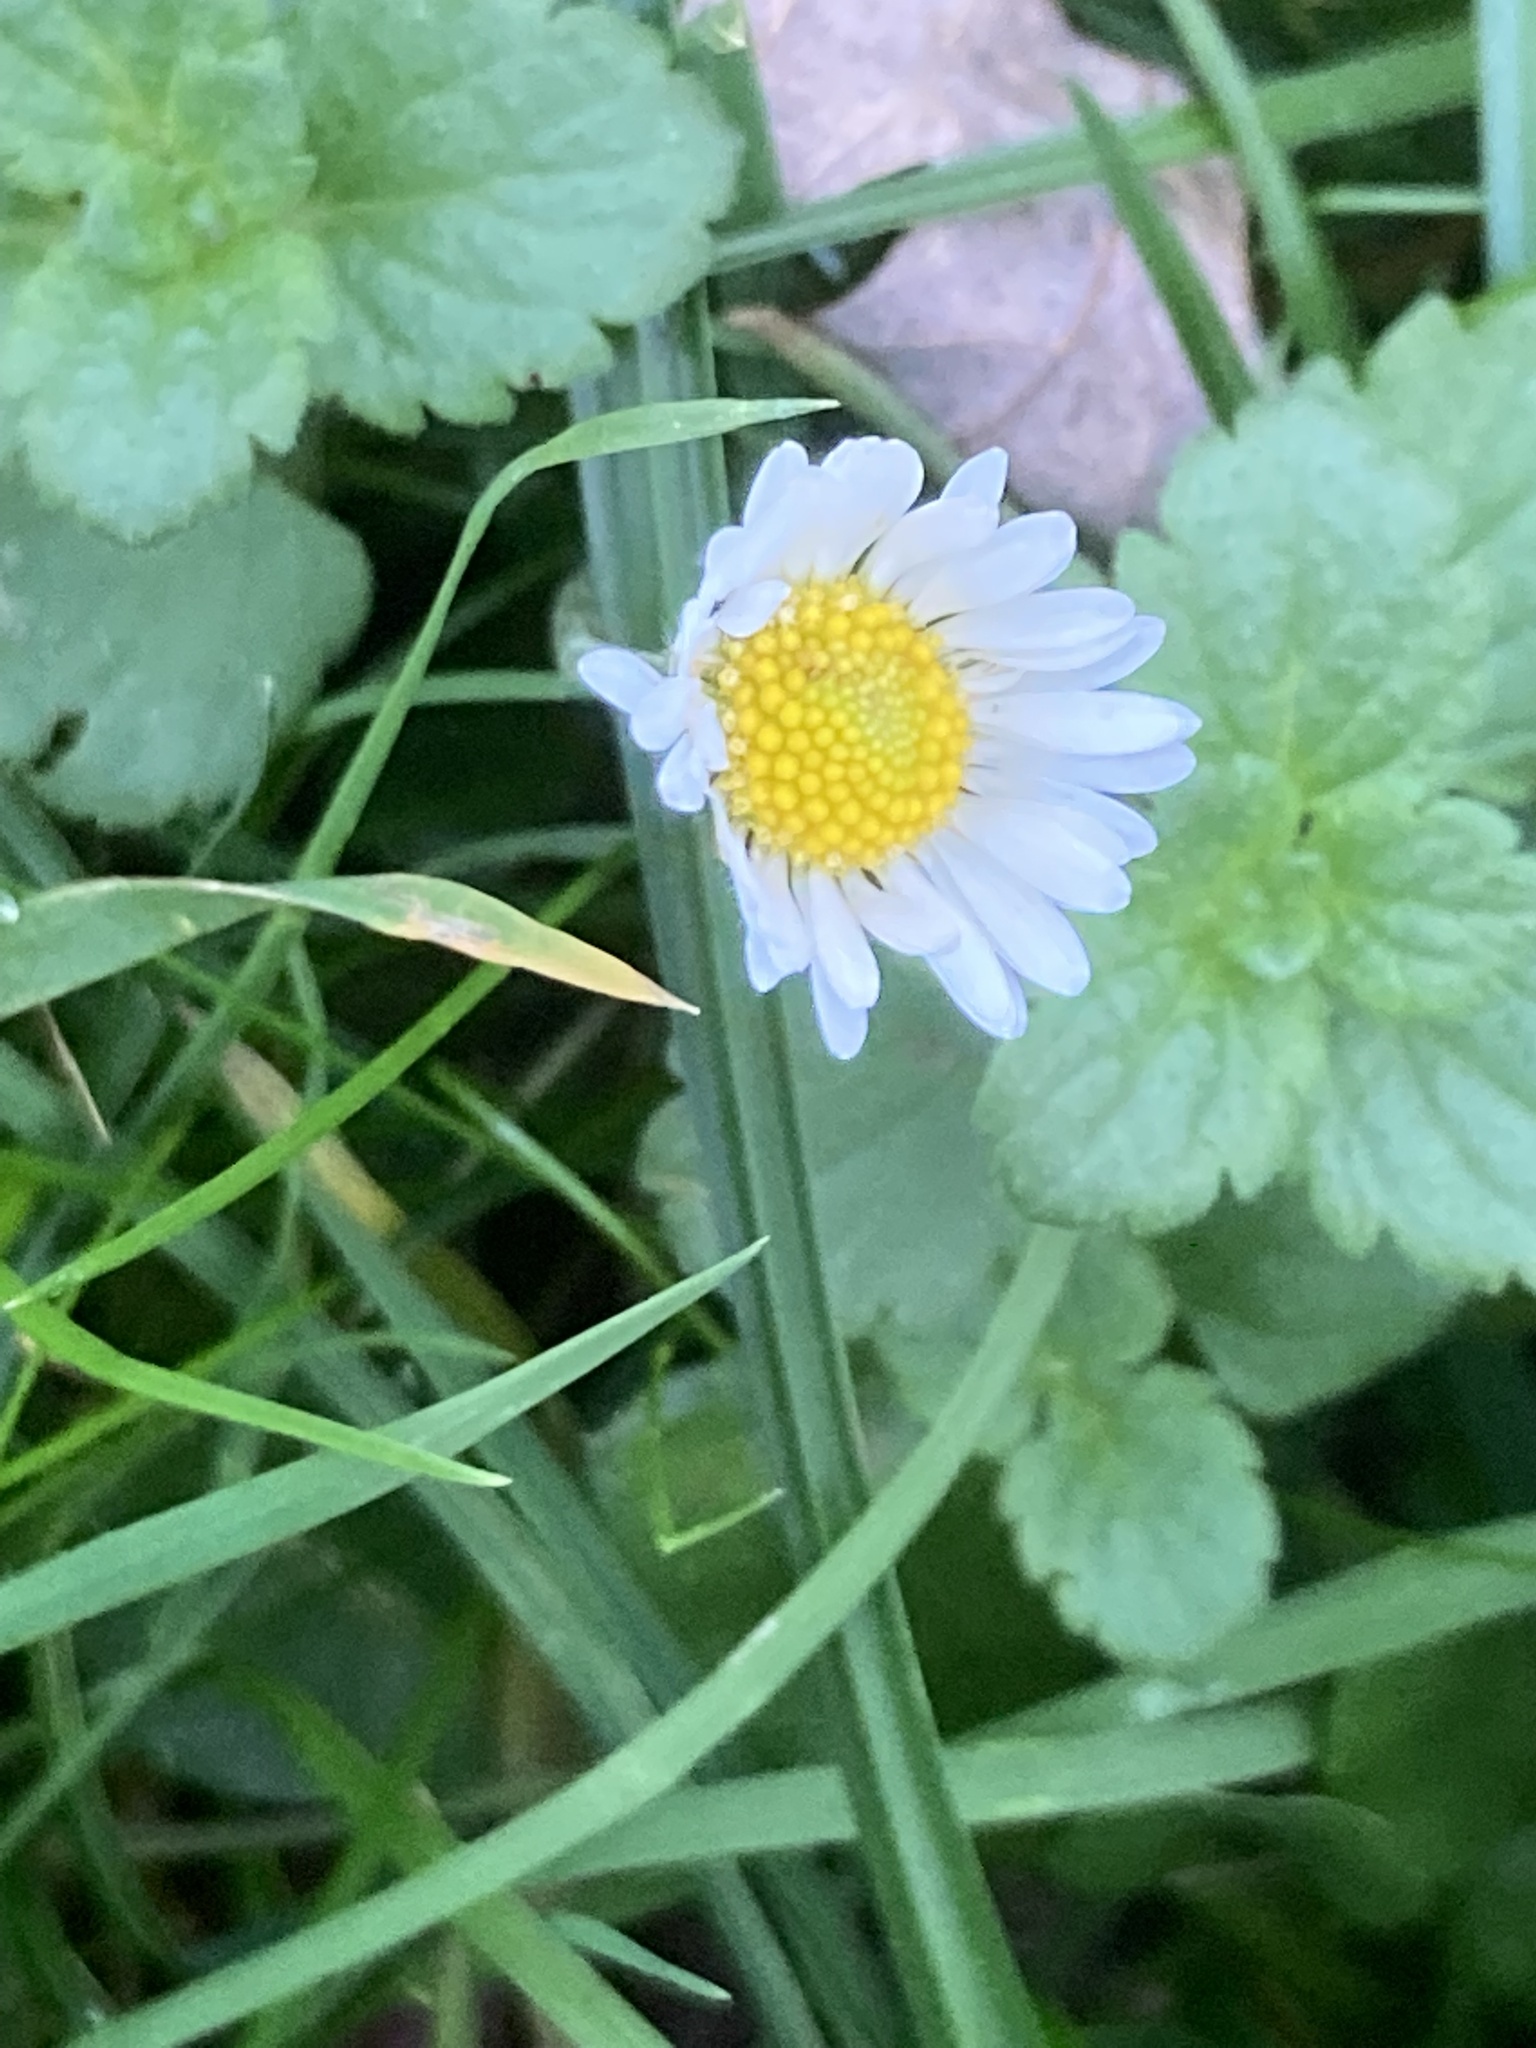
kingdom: Plantae
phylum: Tracheophyta
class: Magnoliopsida
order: Asterales
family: Asteraceae
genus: Bellis
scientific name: Bellis perennis
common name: Lawndaisy
